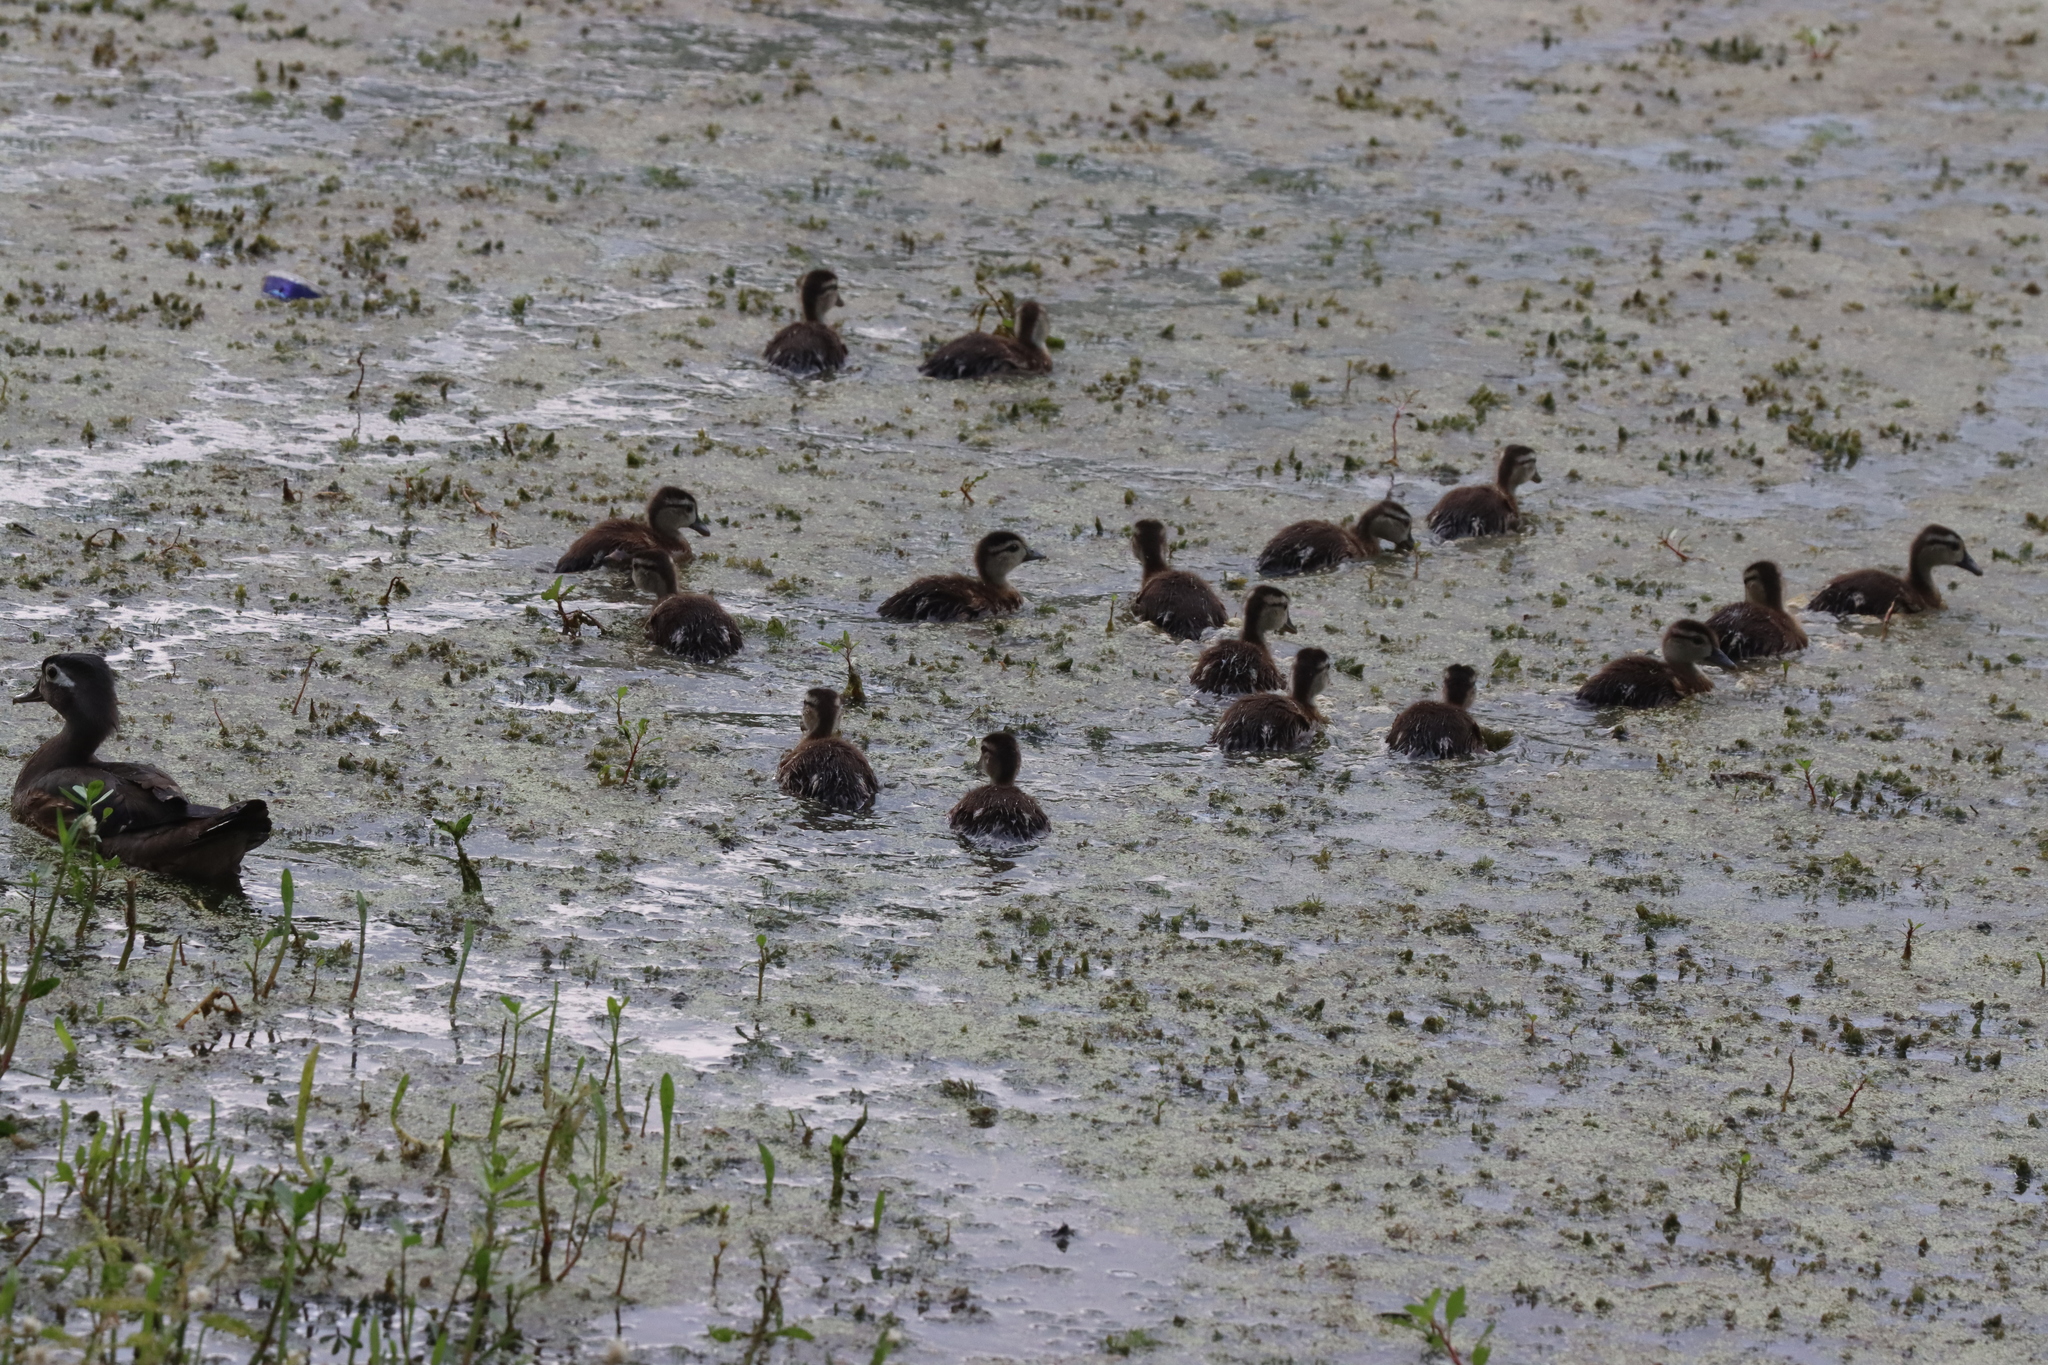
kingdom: Animalia
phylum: Chordata
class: Aves
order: Anseriformes
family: Anatidae
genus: Aix
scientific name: Aix sponsa
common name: Wood duck
